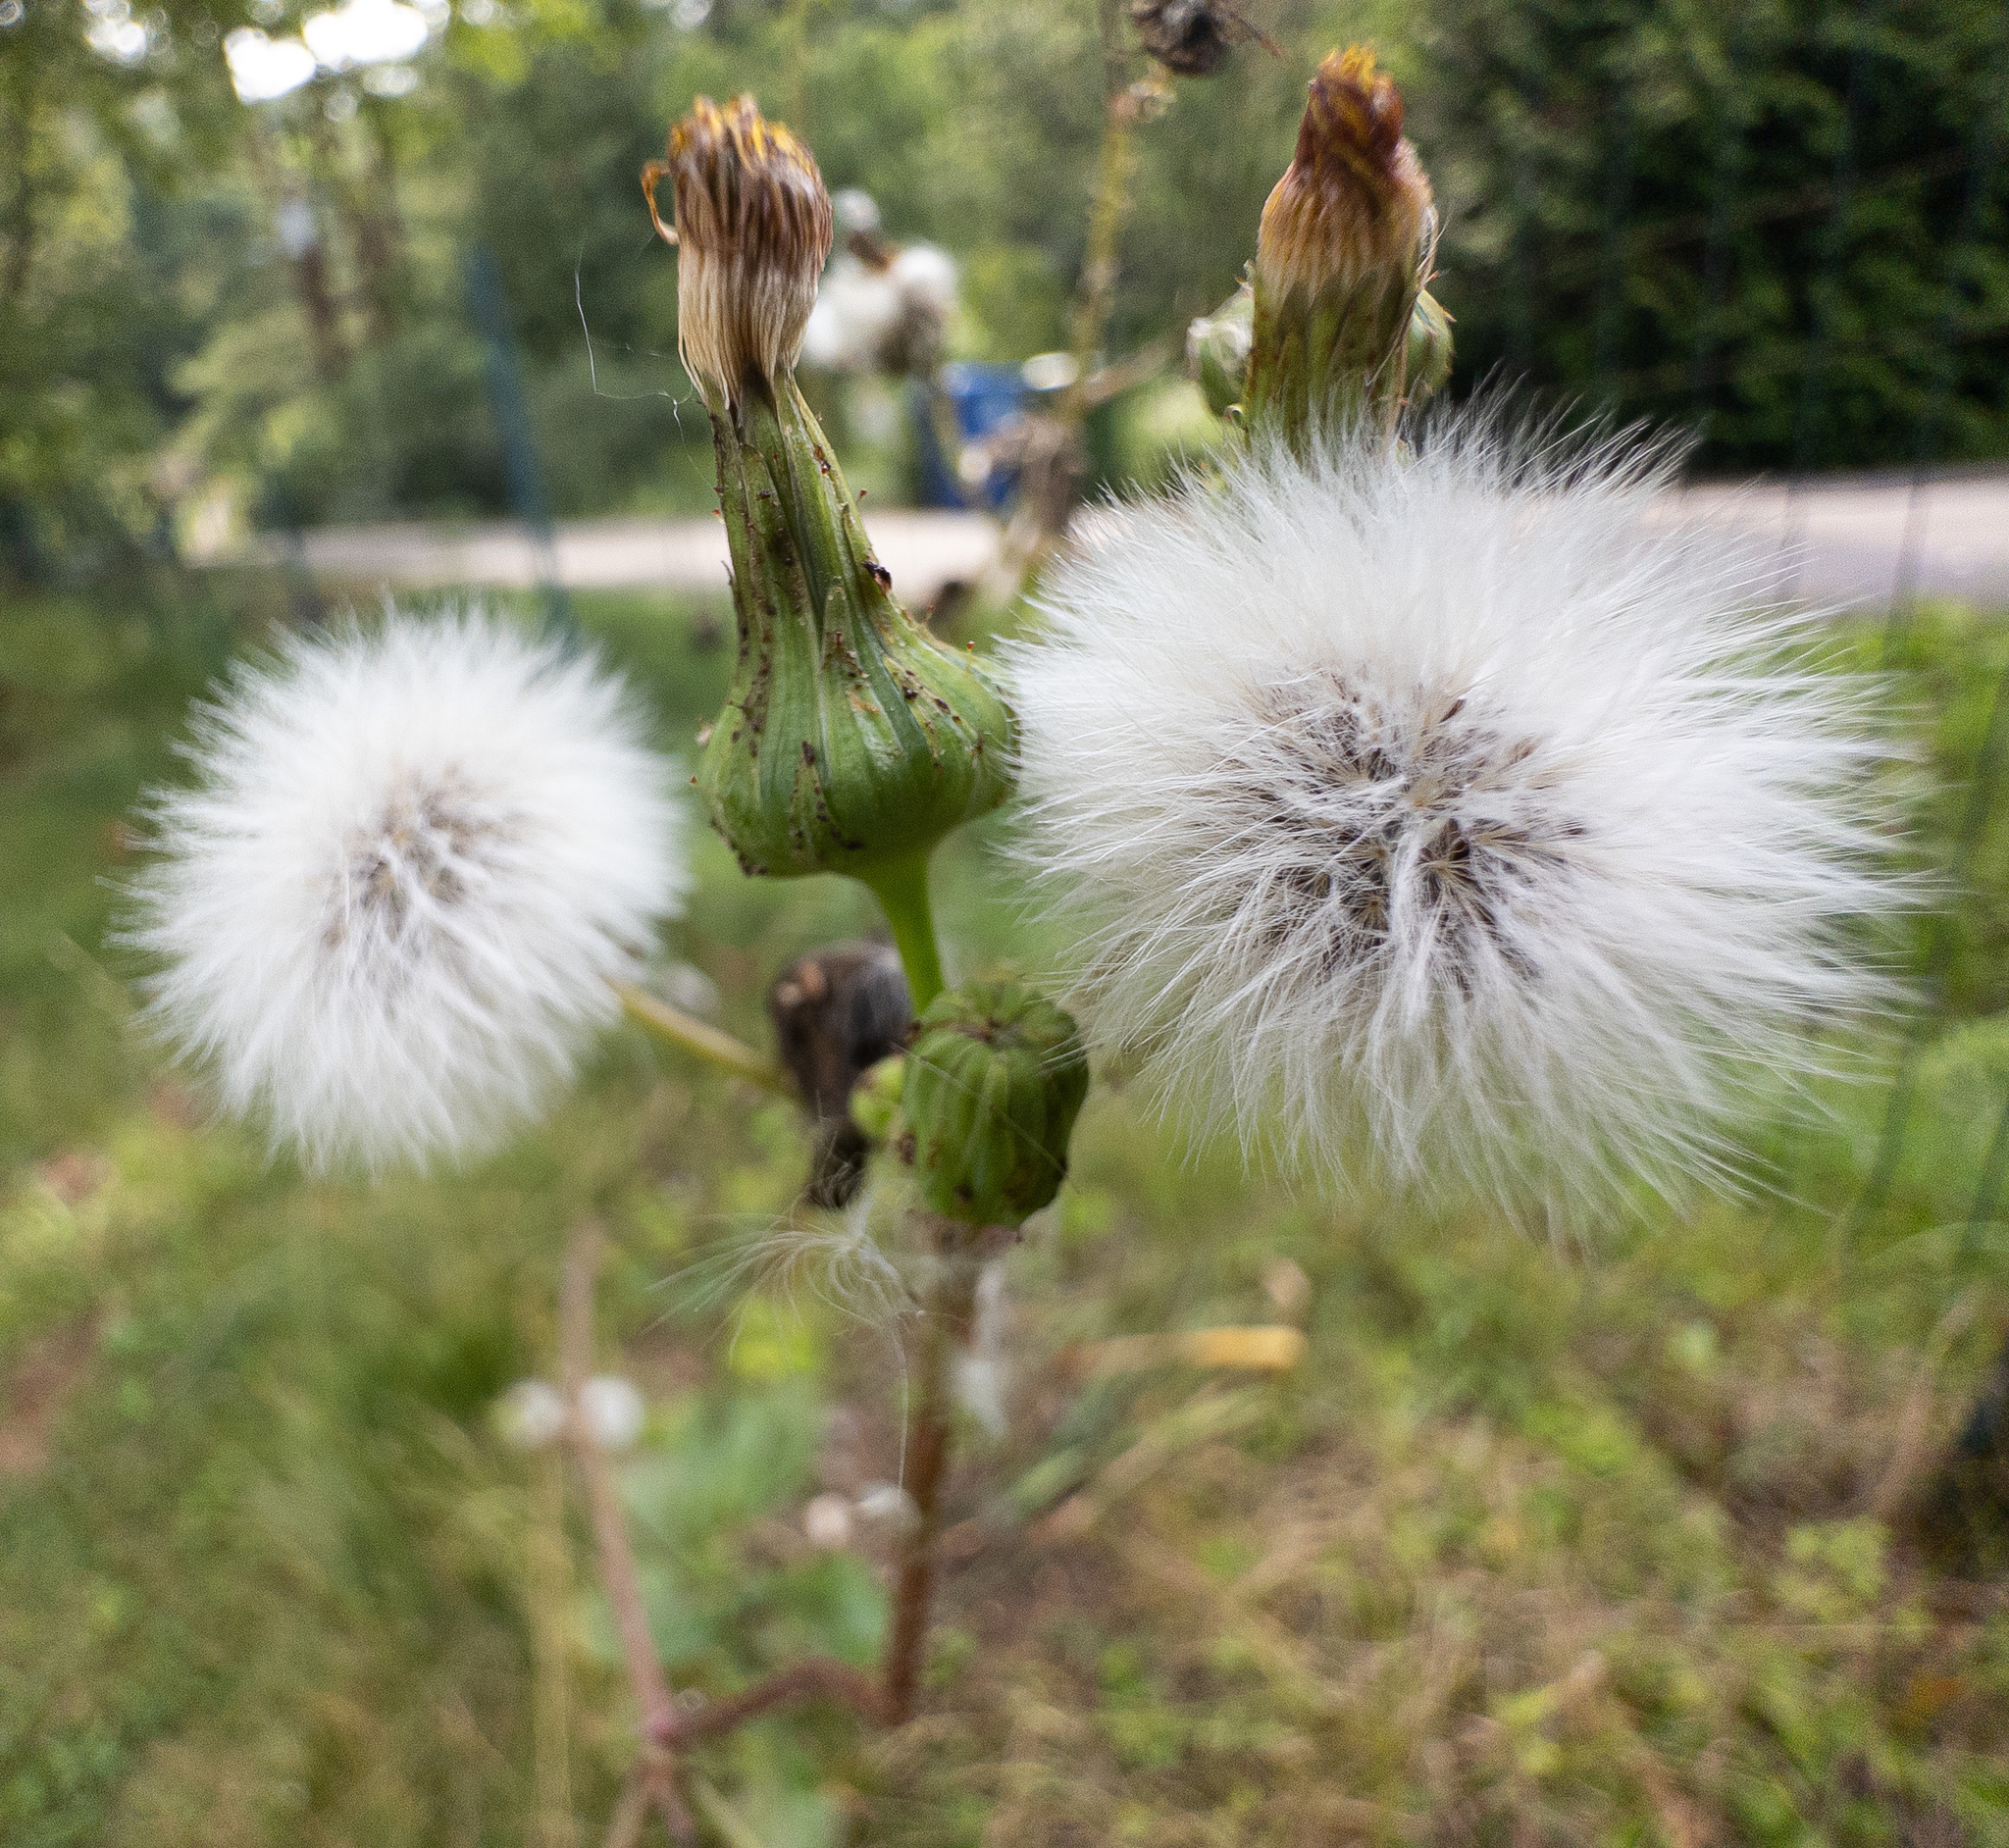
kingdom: Plantae
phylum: Tracheophyta
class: Magnoliopsida
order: Asterales
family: Asteraceae
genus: Sonchus
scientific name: Sonchus asper
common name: Prickly sow-thistle
